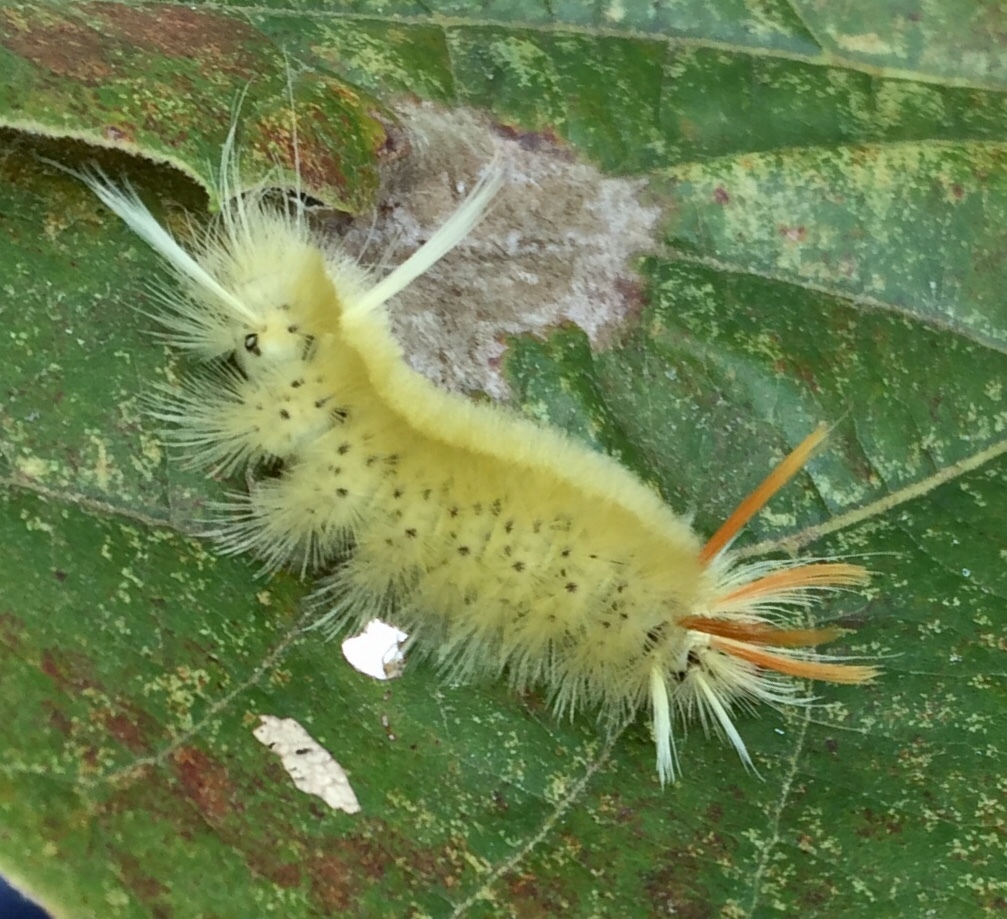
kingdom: Animalia
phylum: Arthropoda
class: Insecta
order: Lepidoptera
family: Erebidae
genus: Halysidota
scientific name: Halysidota harrisii
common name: Sycamore tussock moth
